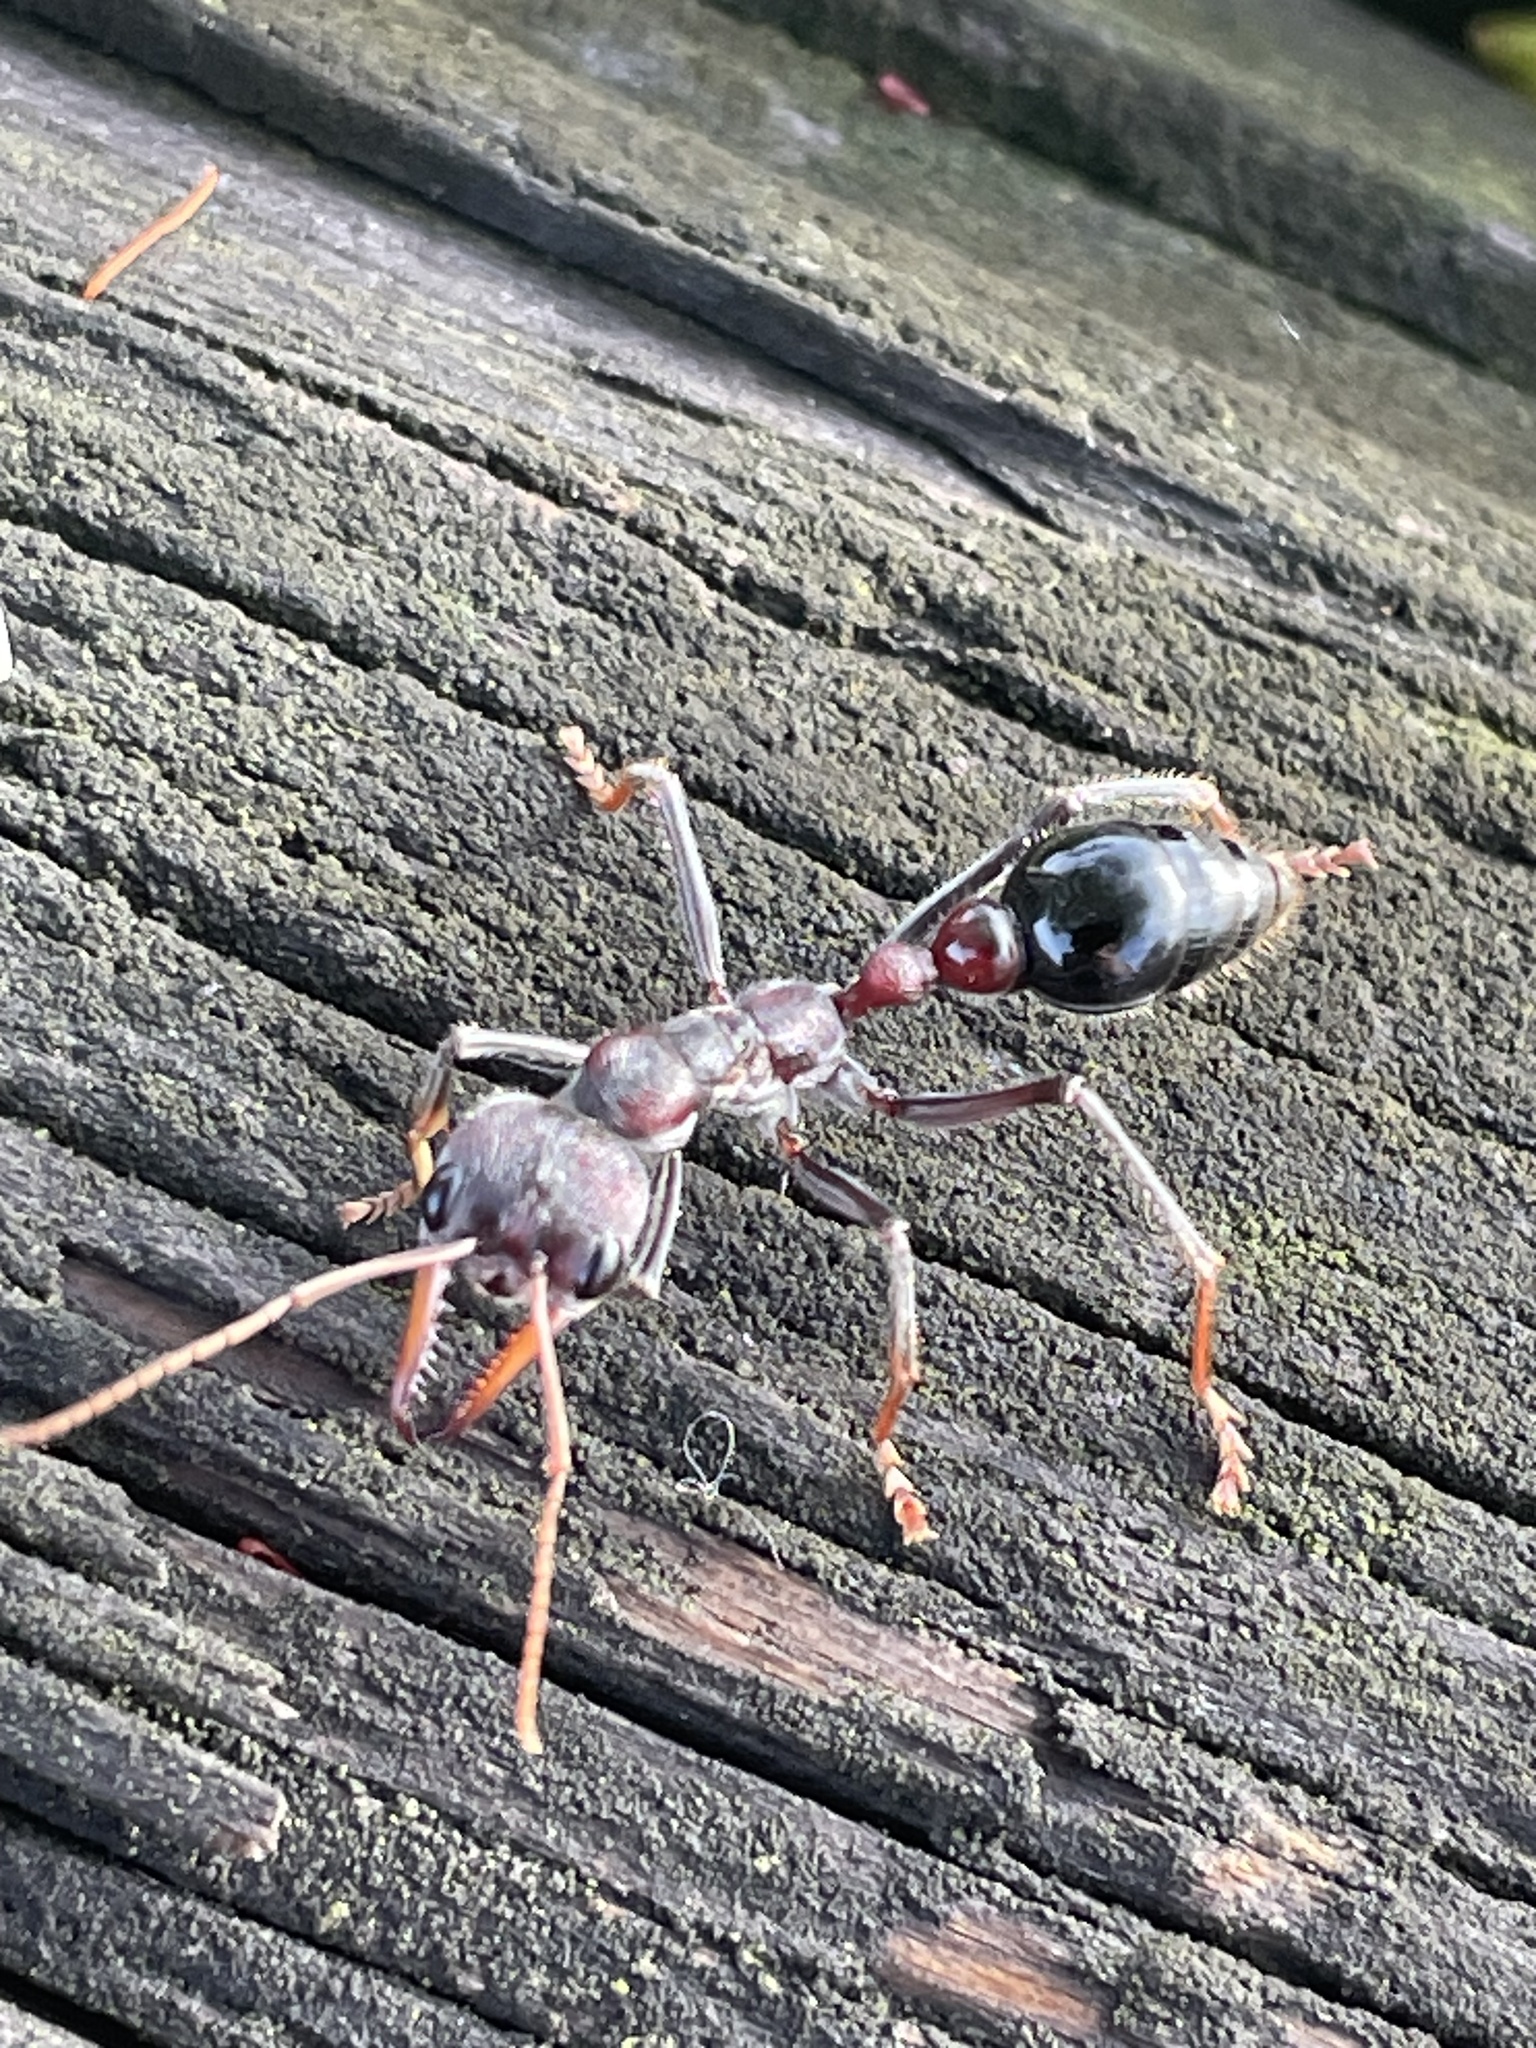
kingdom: Animalia
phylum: Arthropoda
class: Insecta
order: Hymenoptera
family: Formicidae
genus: Myrmecia
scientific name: Myrmecia simillima
